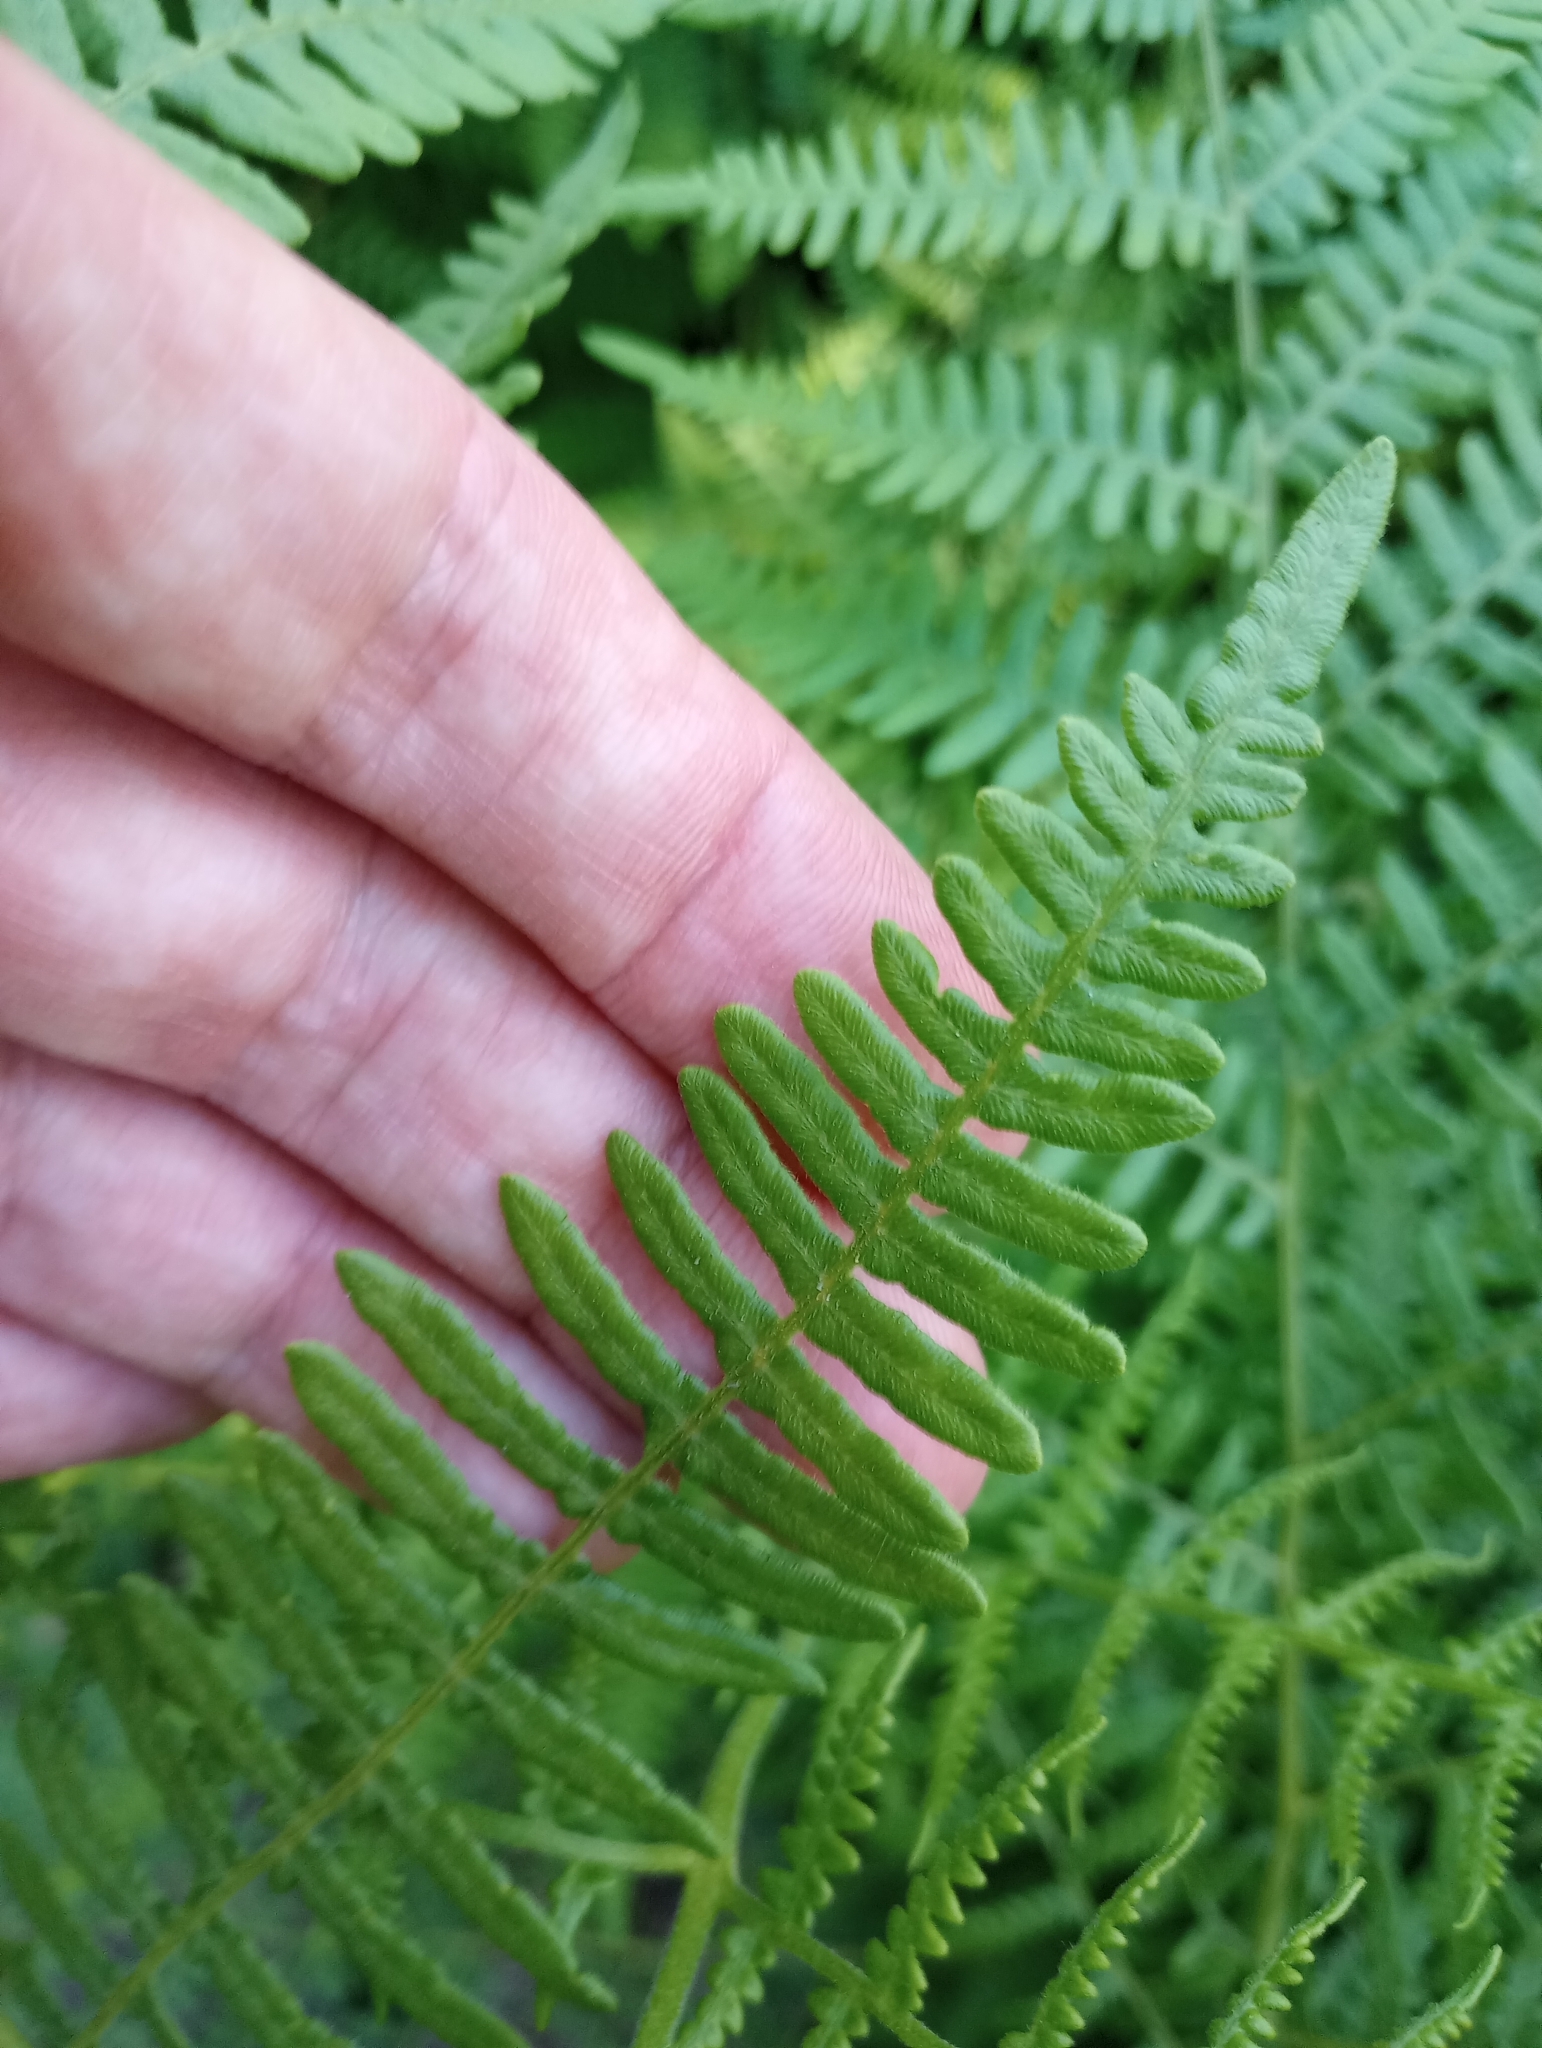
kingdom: Plantae
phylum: Tracheophyta
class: Polypodiopsida
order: Polypodiales
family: Dennstaedtiaceae
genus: Pteridium
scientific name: Pteridium aquilinum
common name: Bracken
